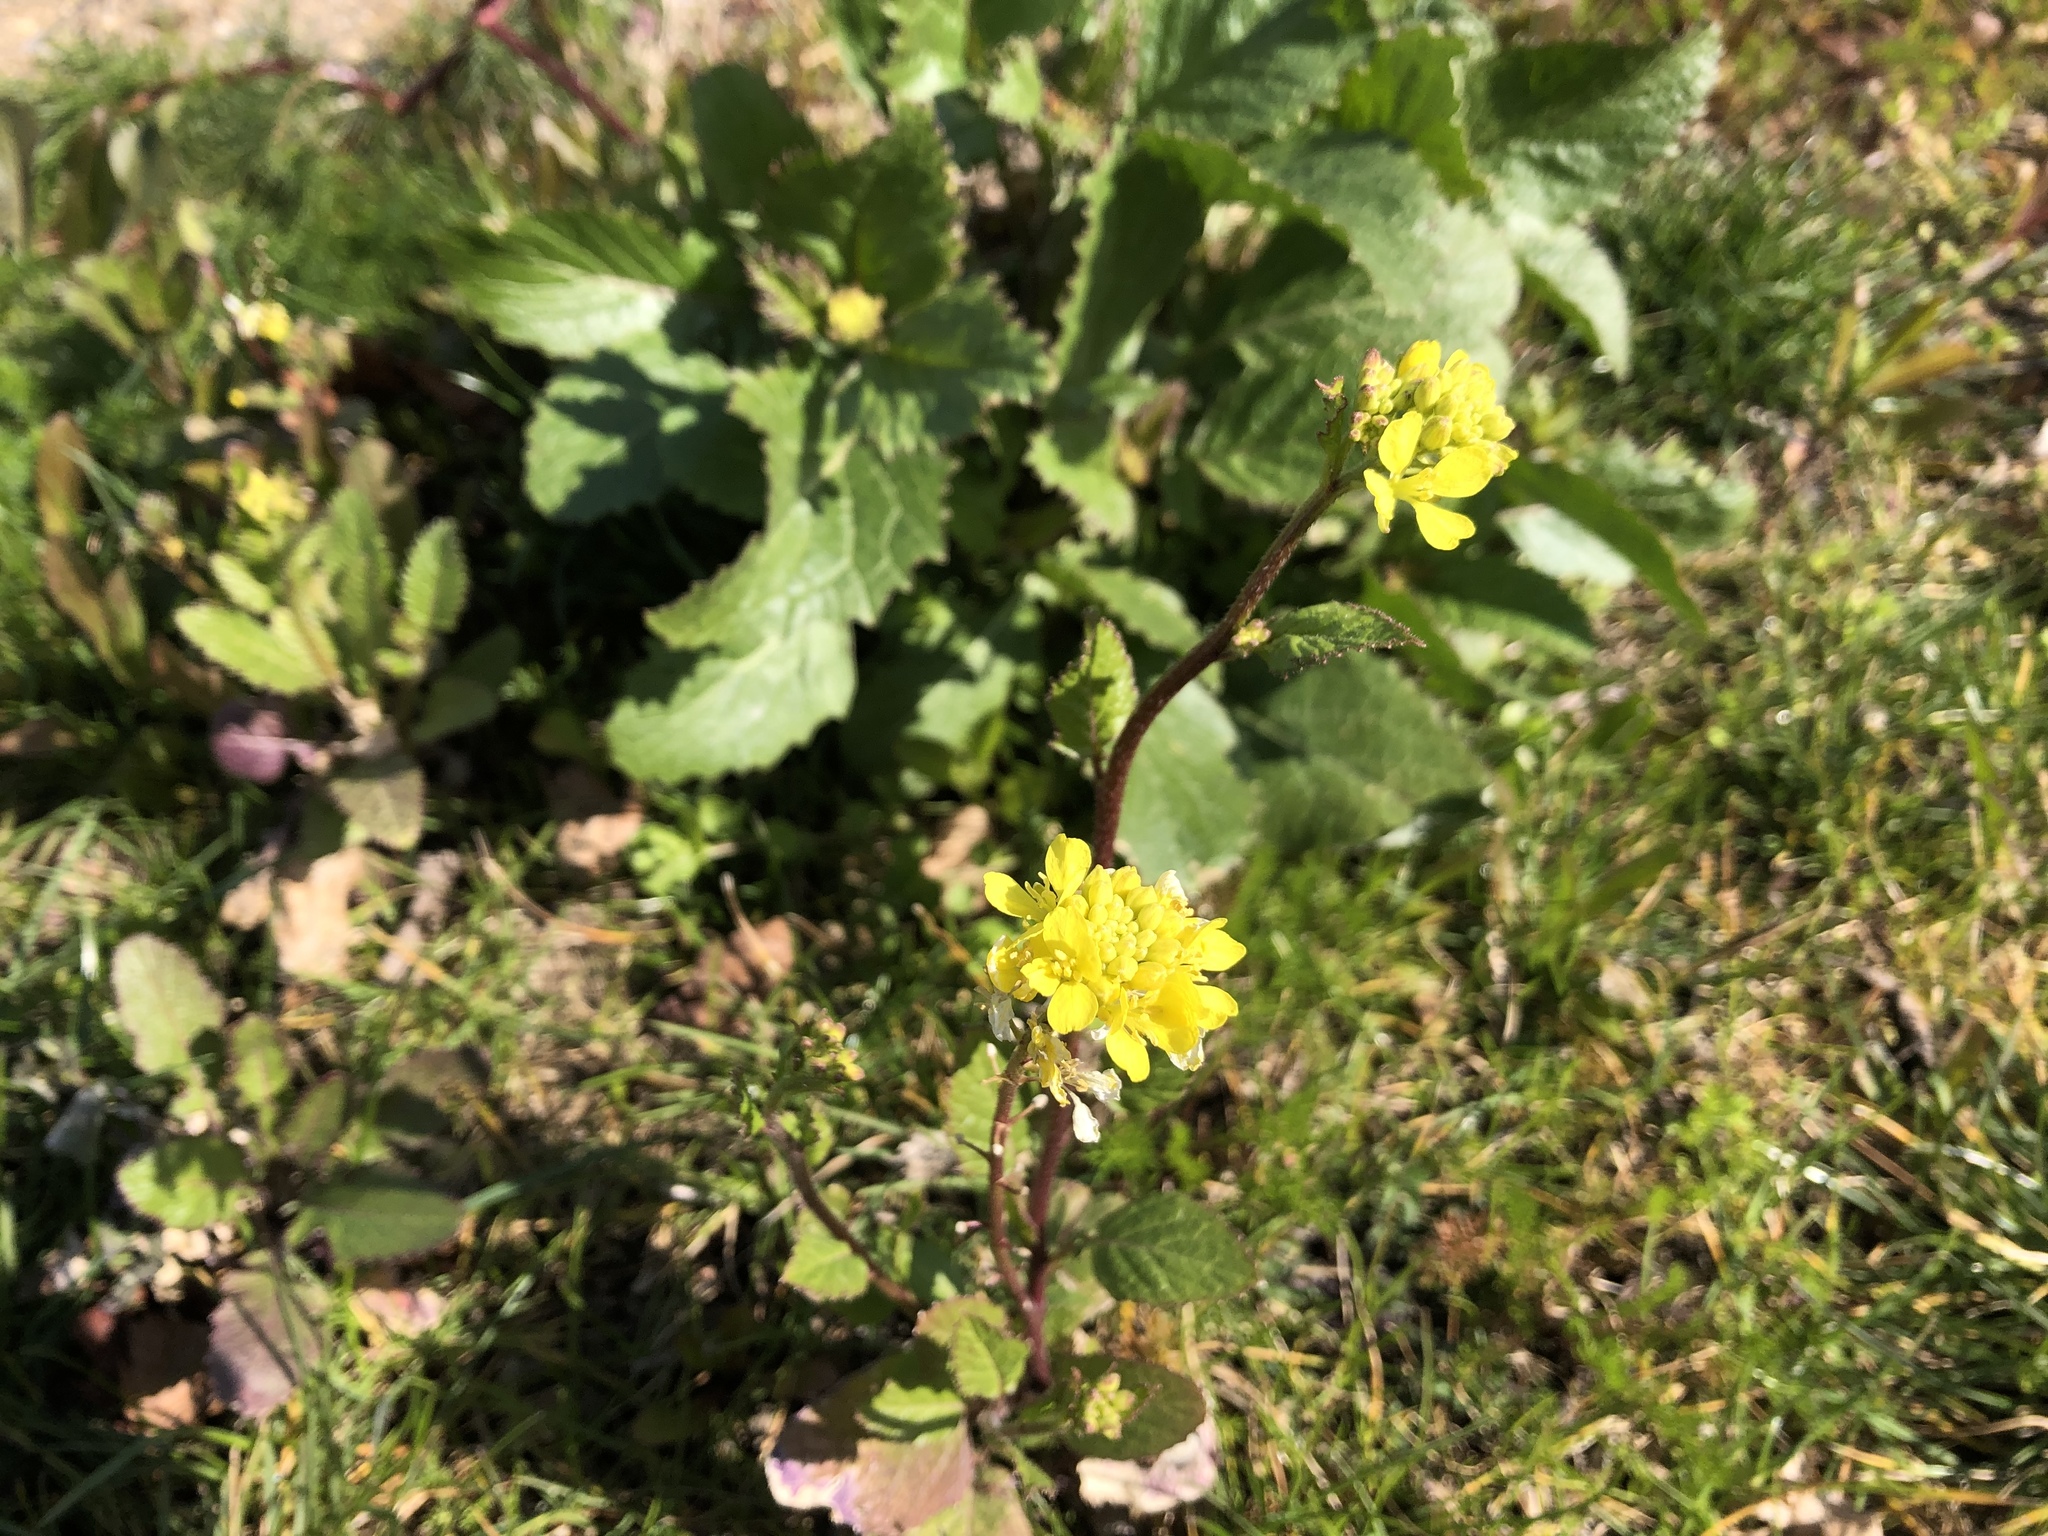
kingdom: Plantae
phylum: Tracheophyta
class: Magnoliopsida
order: Brassicales
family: Brassicaceae
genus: Sinapis
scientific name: Sinapis arvensis
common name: Charlock
